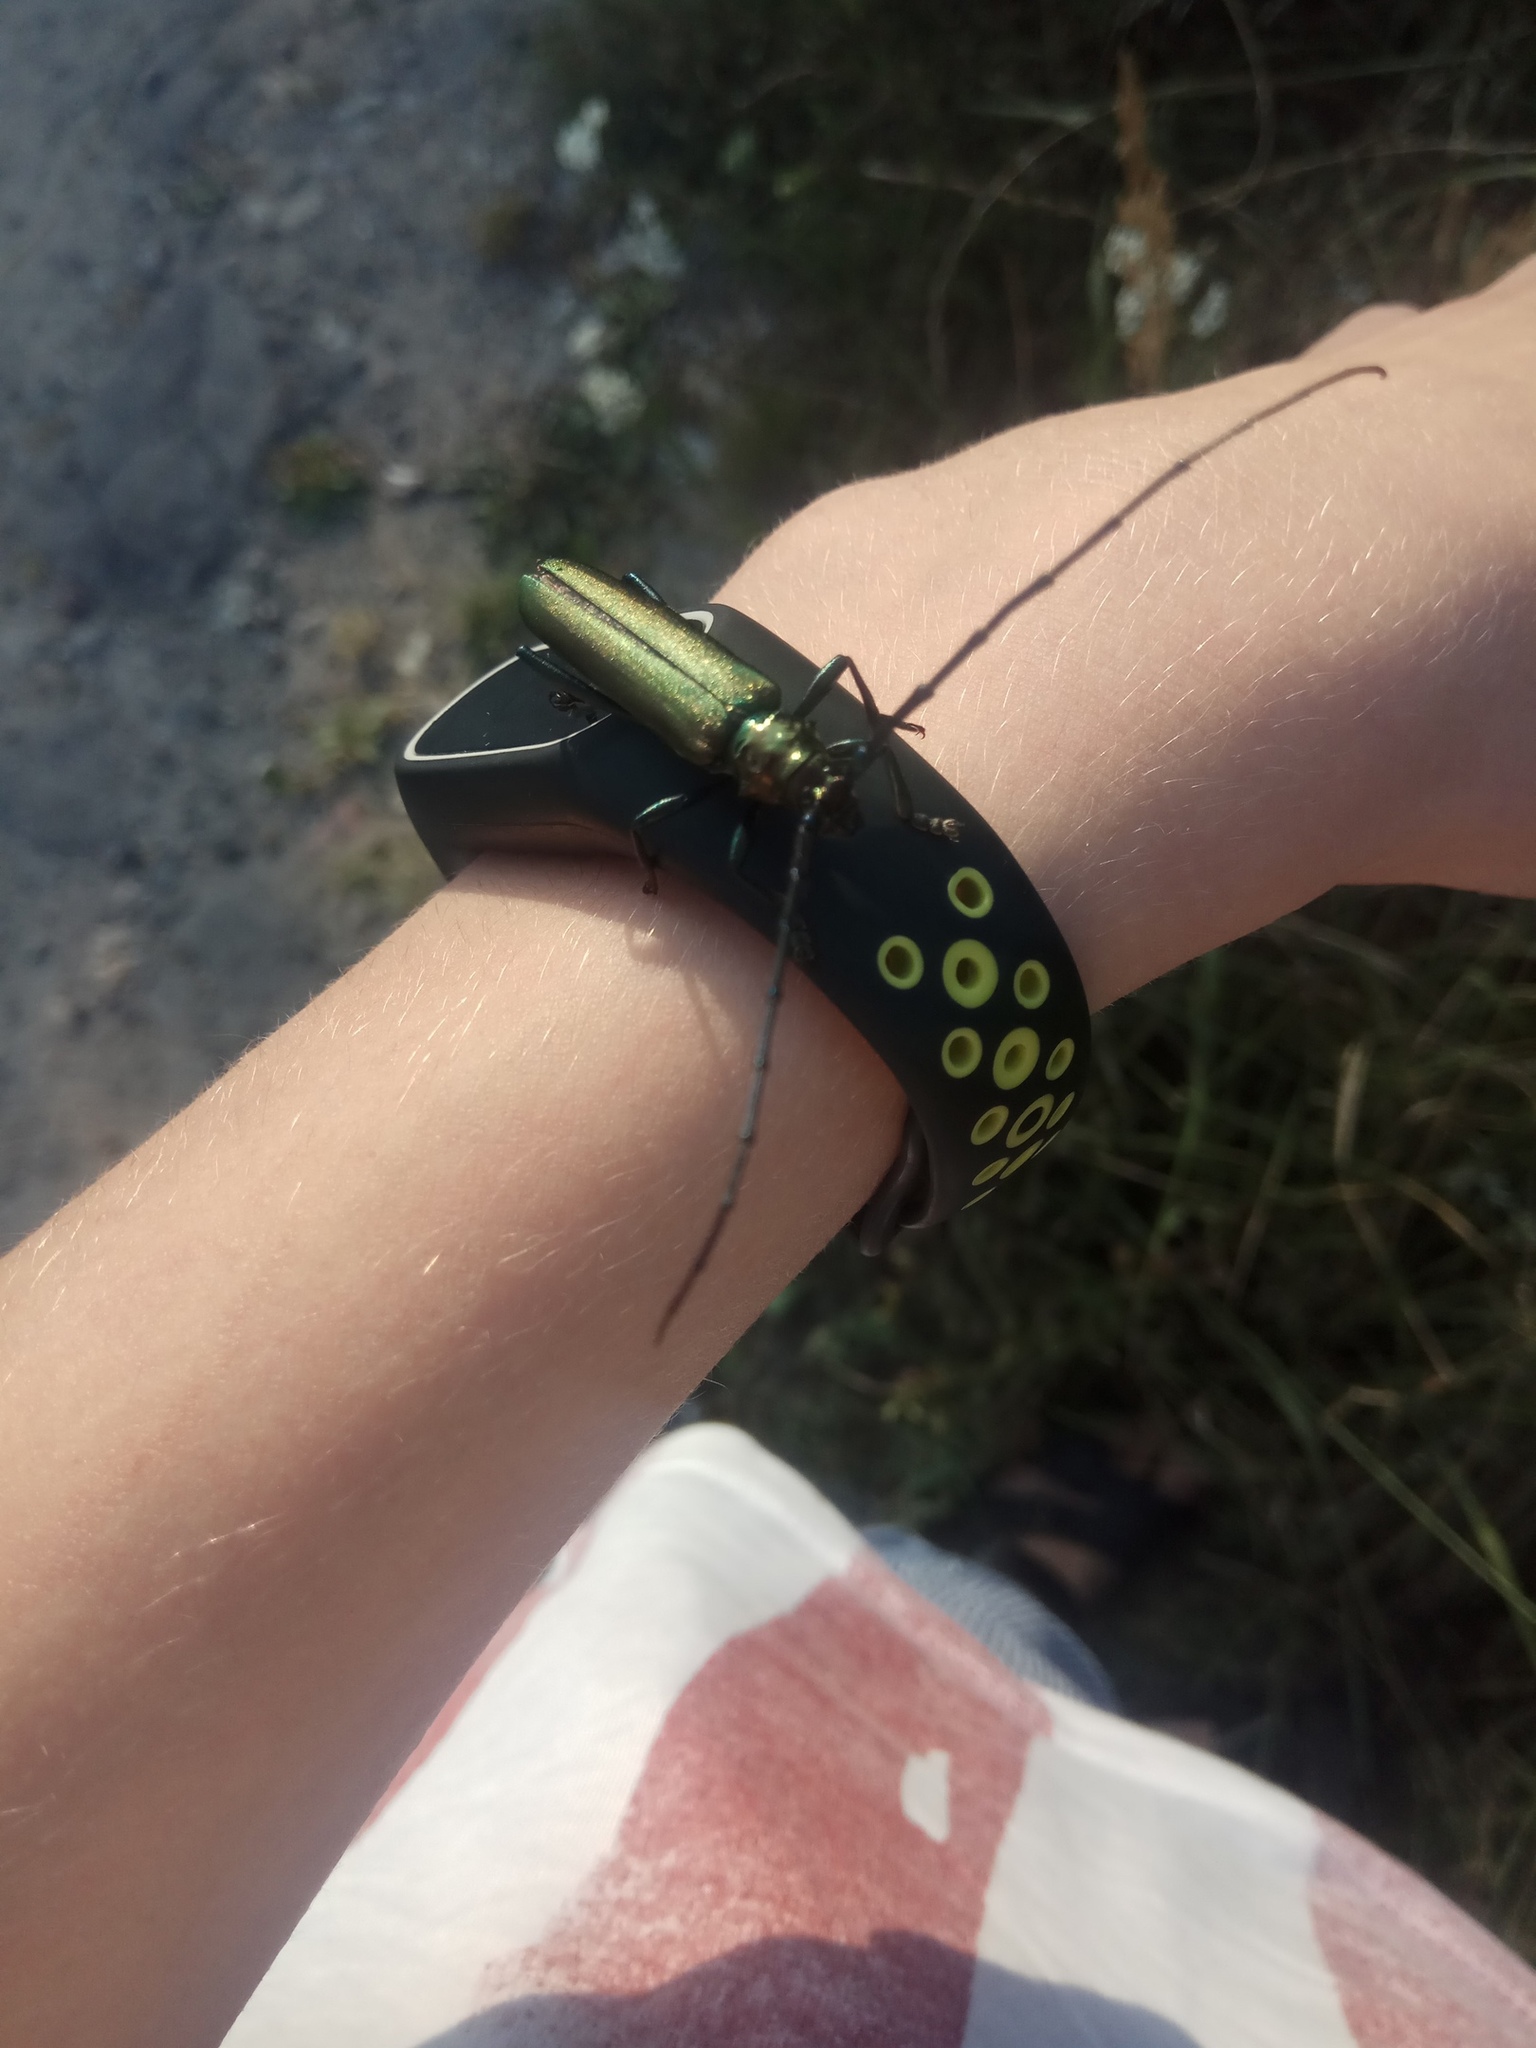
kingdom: Animalia
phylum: Arthropoda
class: Insecta
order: Coleoptera
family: Cerambycidae
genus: Aromia
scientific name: Aromia moschata
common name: Musk beetle
